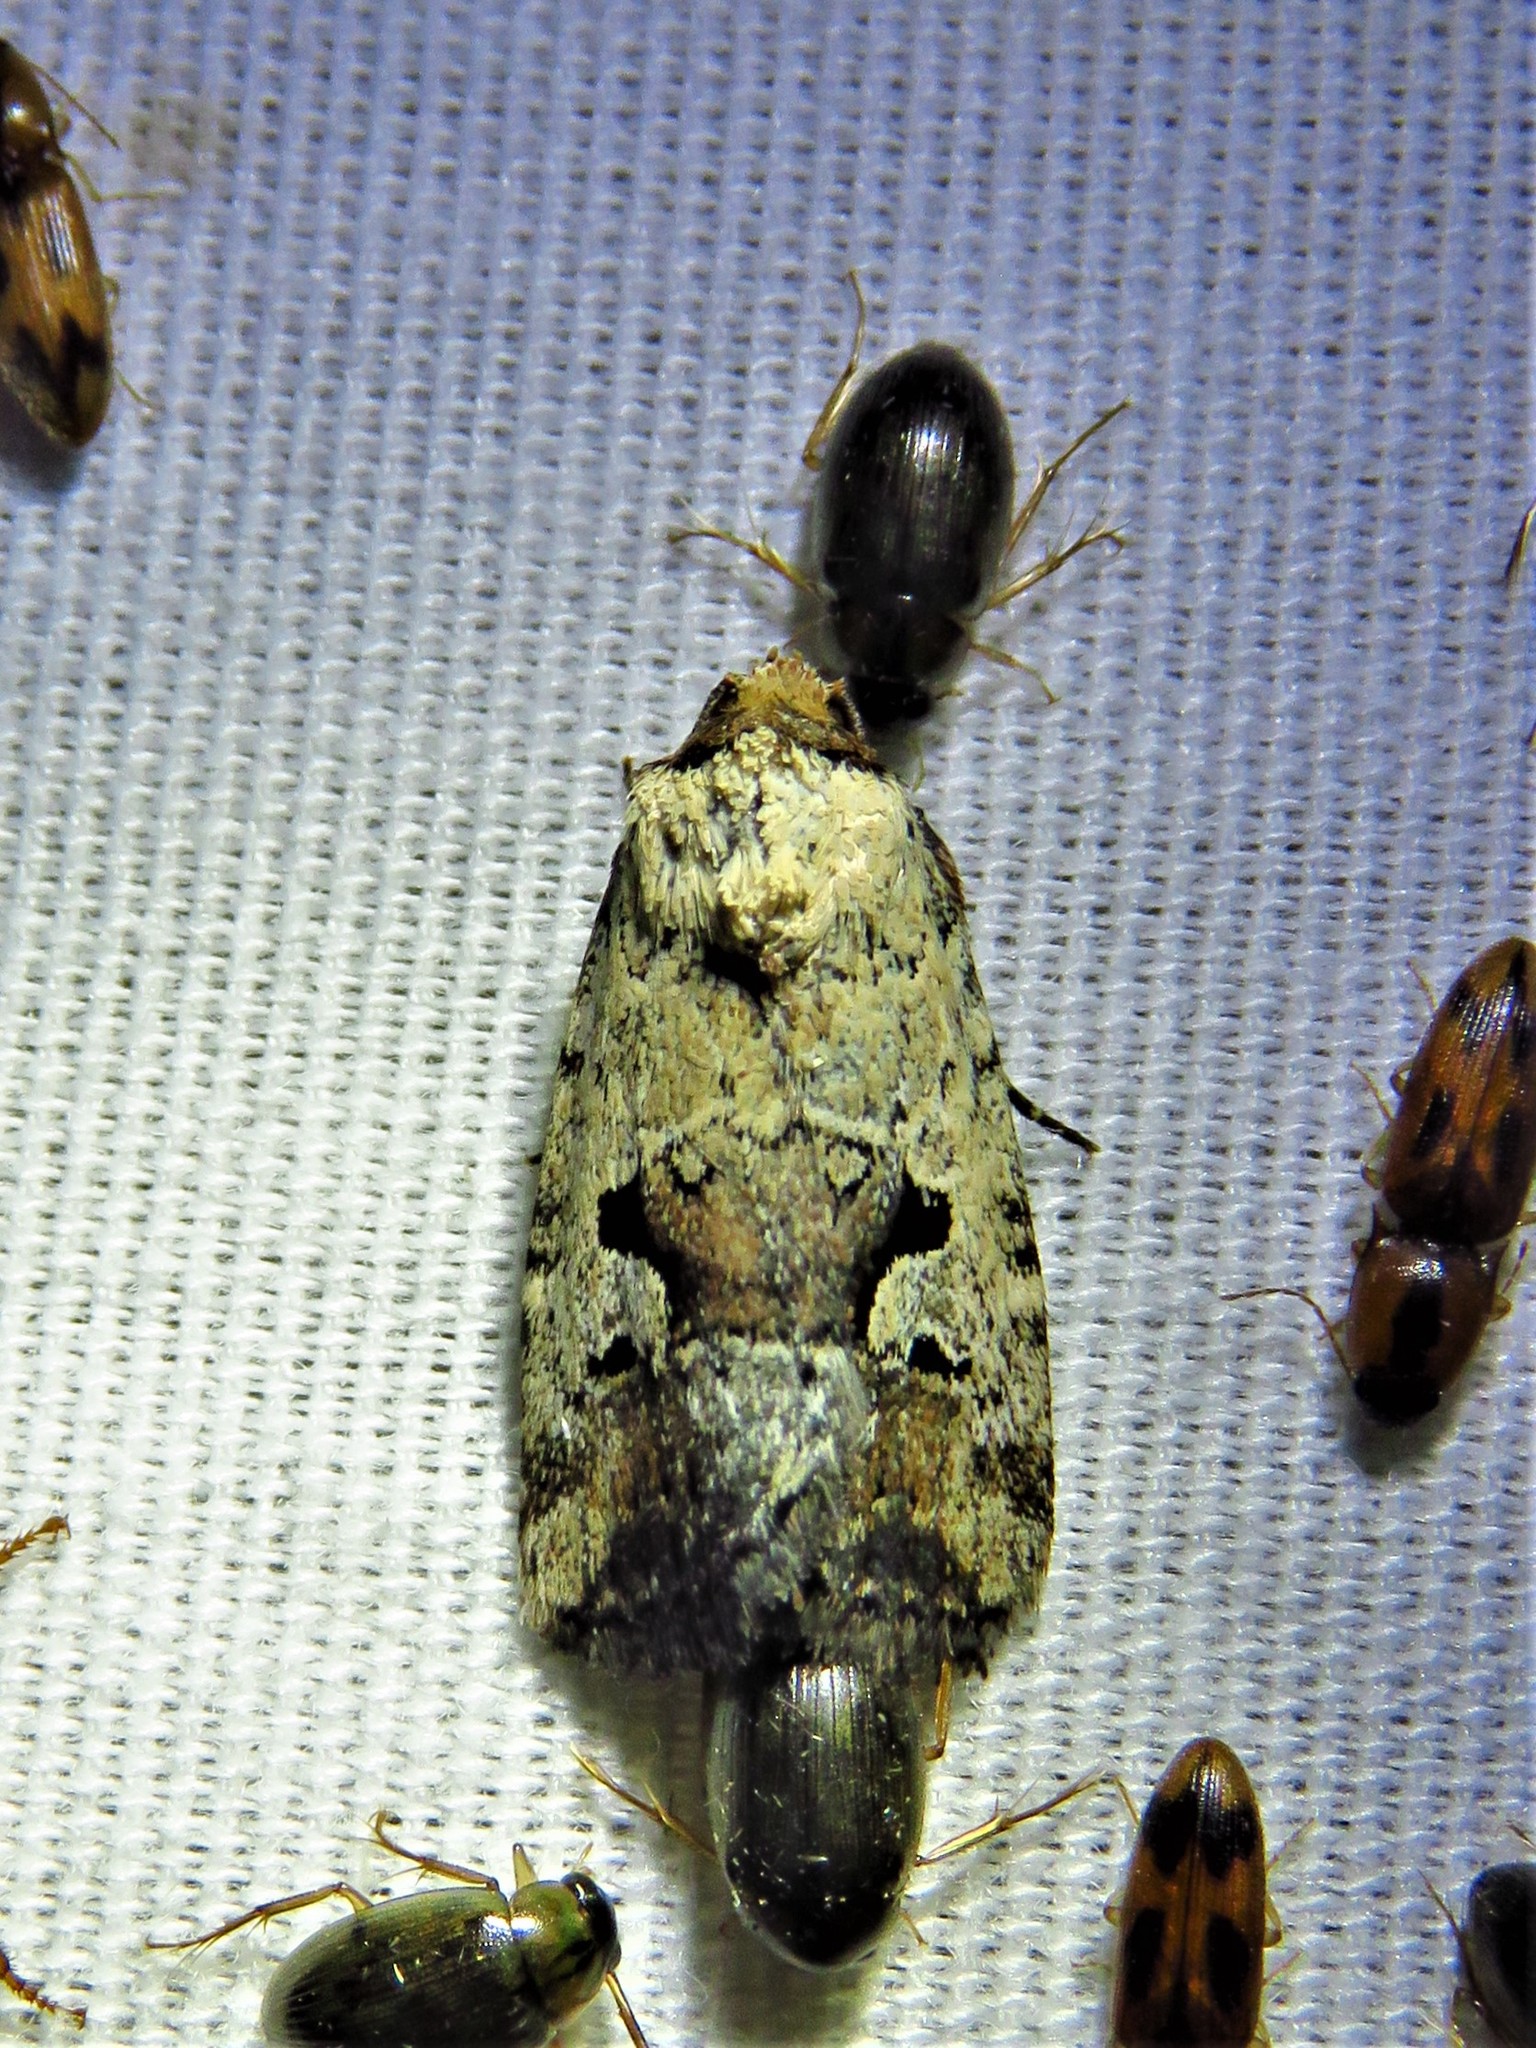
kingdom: Animalia
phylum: Arthropoda
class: Insecta
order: Lepidoptera
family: Noctuidae
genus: Elaphria
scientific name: Elaphria festivoides
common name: Festive midget
